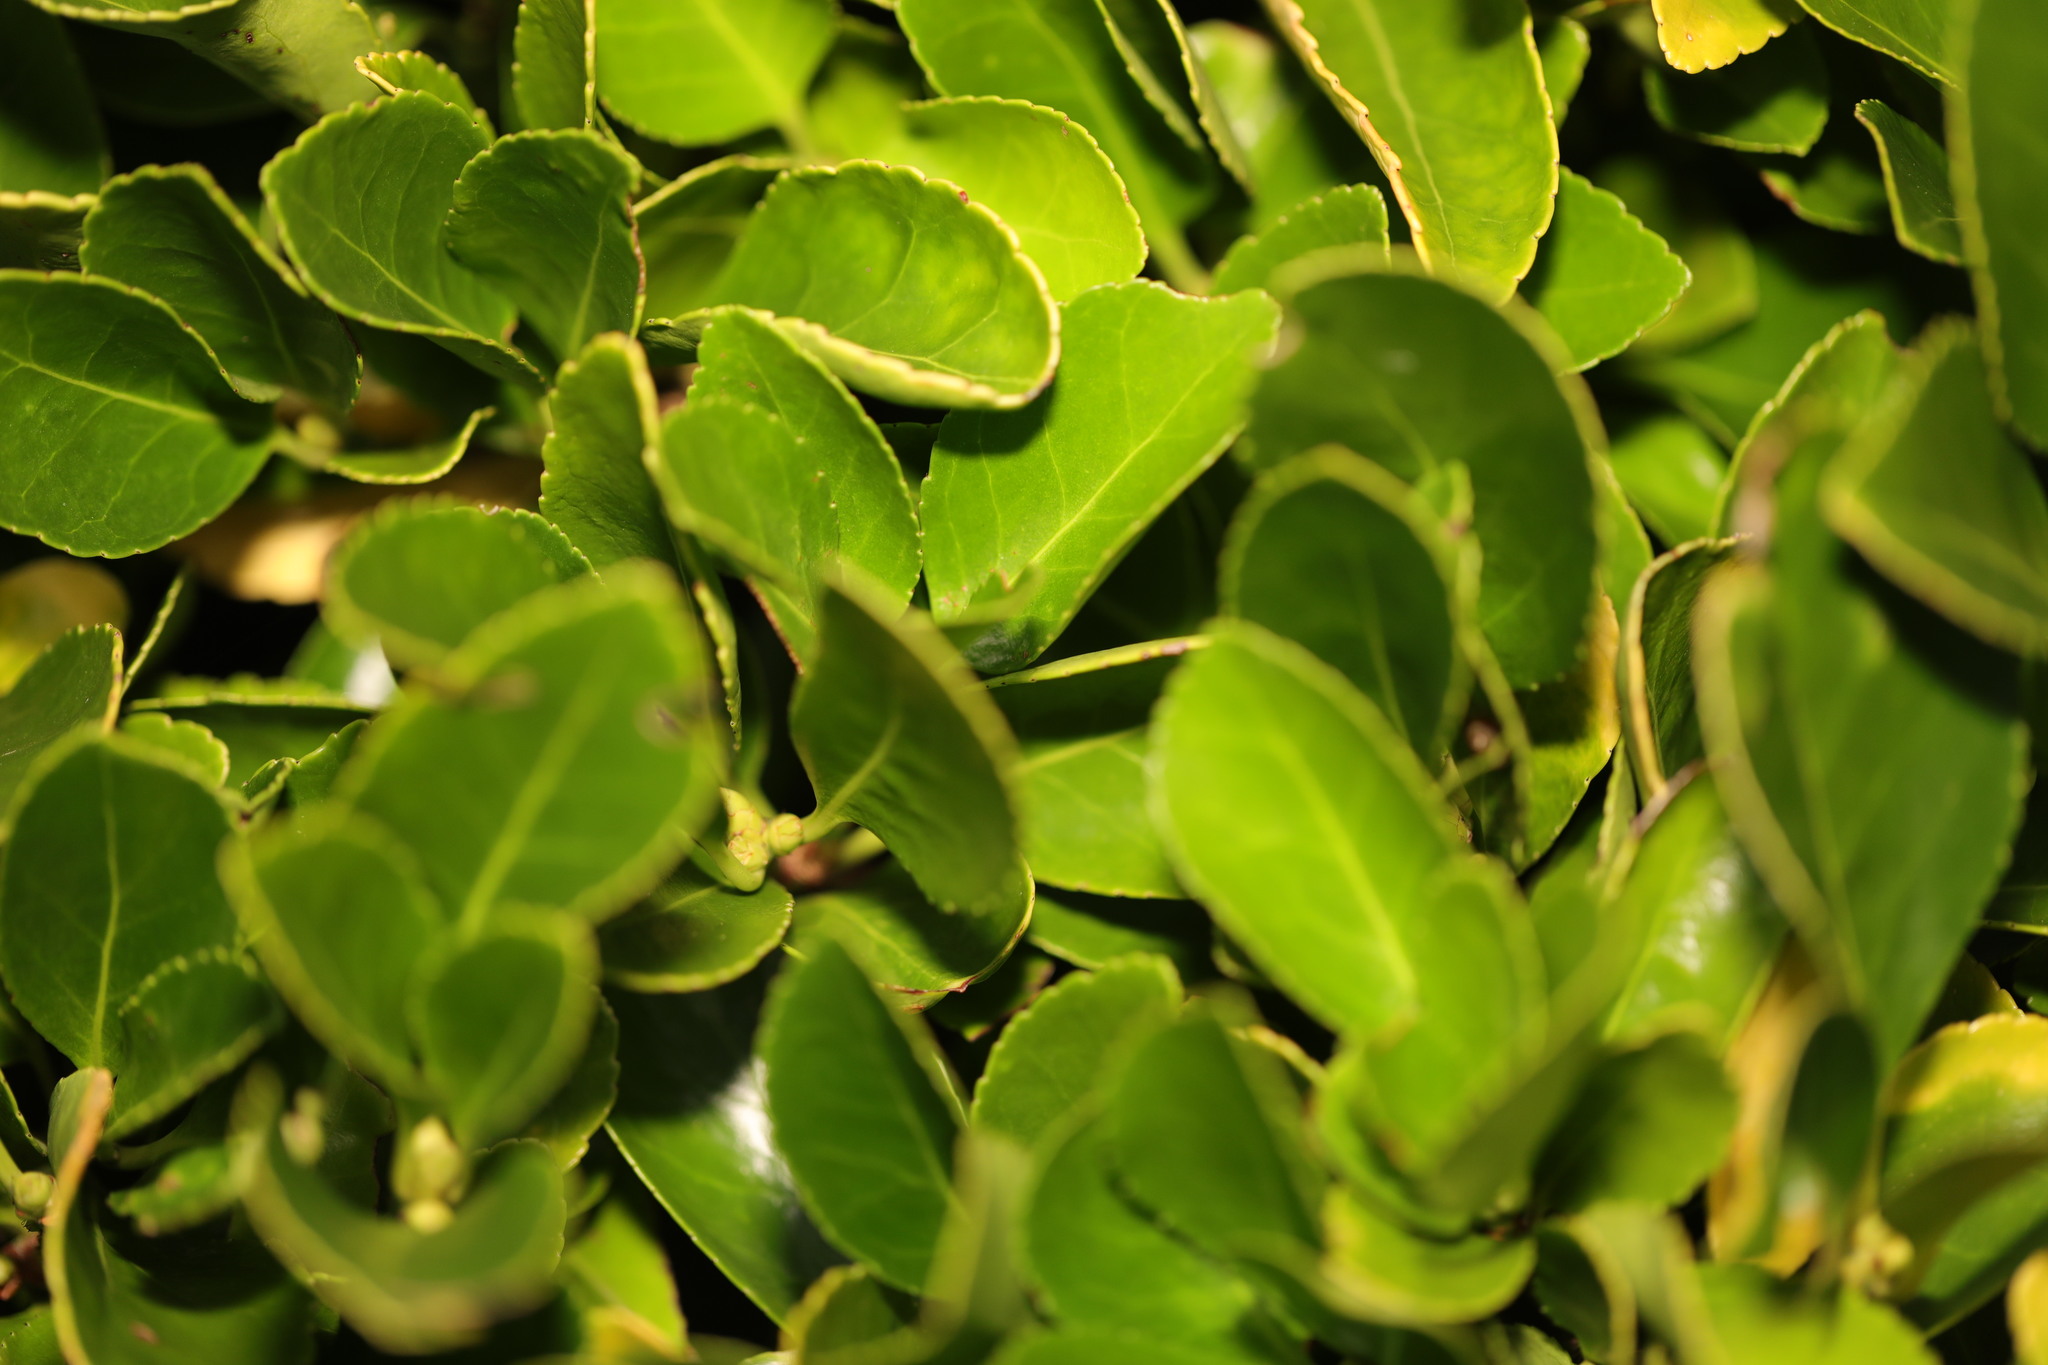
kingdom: Plantae
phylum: Tracheophyta
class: Magnoliopsida
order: Celastrales
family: Celastraceae
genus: Euonymus
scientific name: Euonymus japonicus
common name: Japanese spindletree
